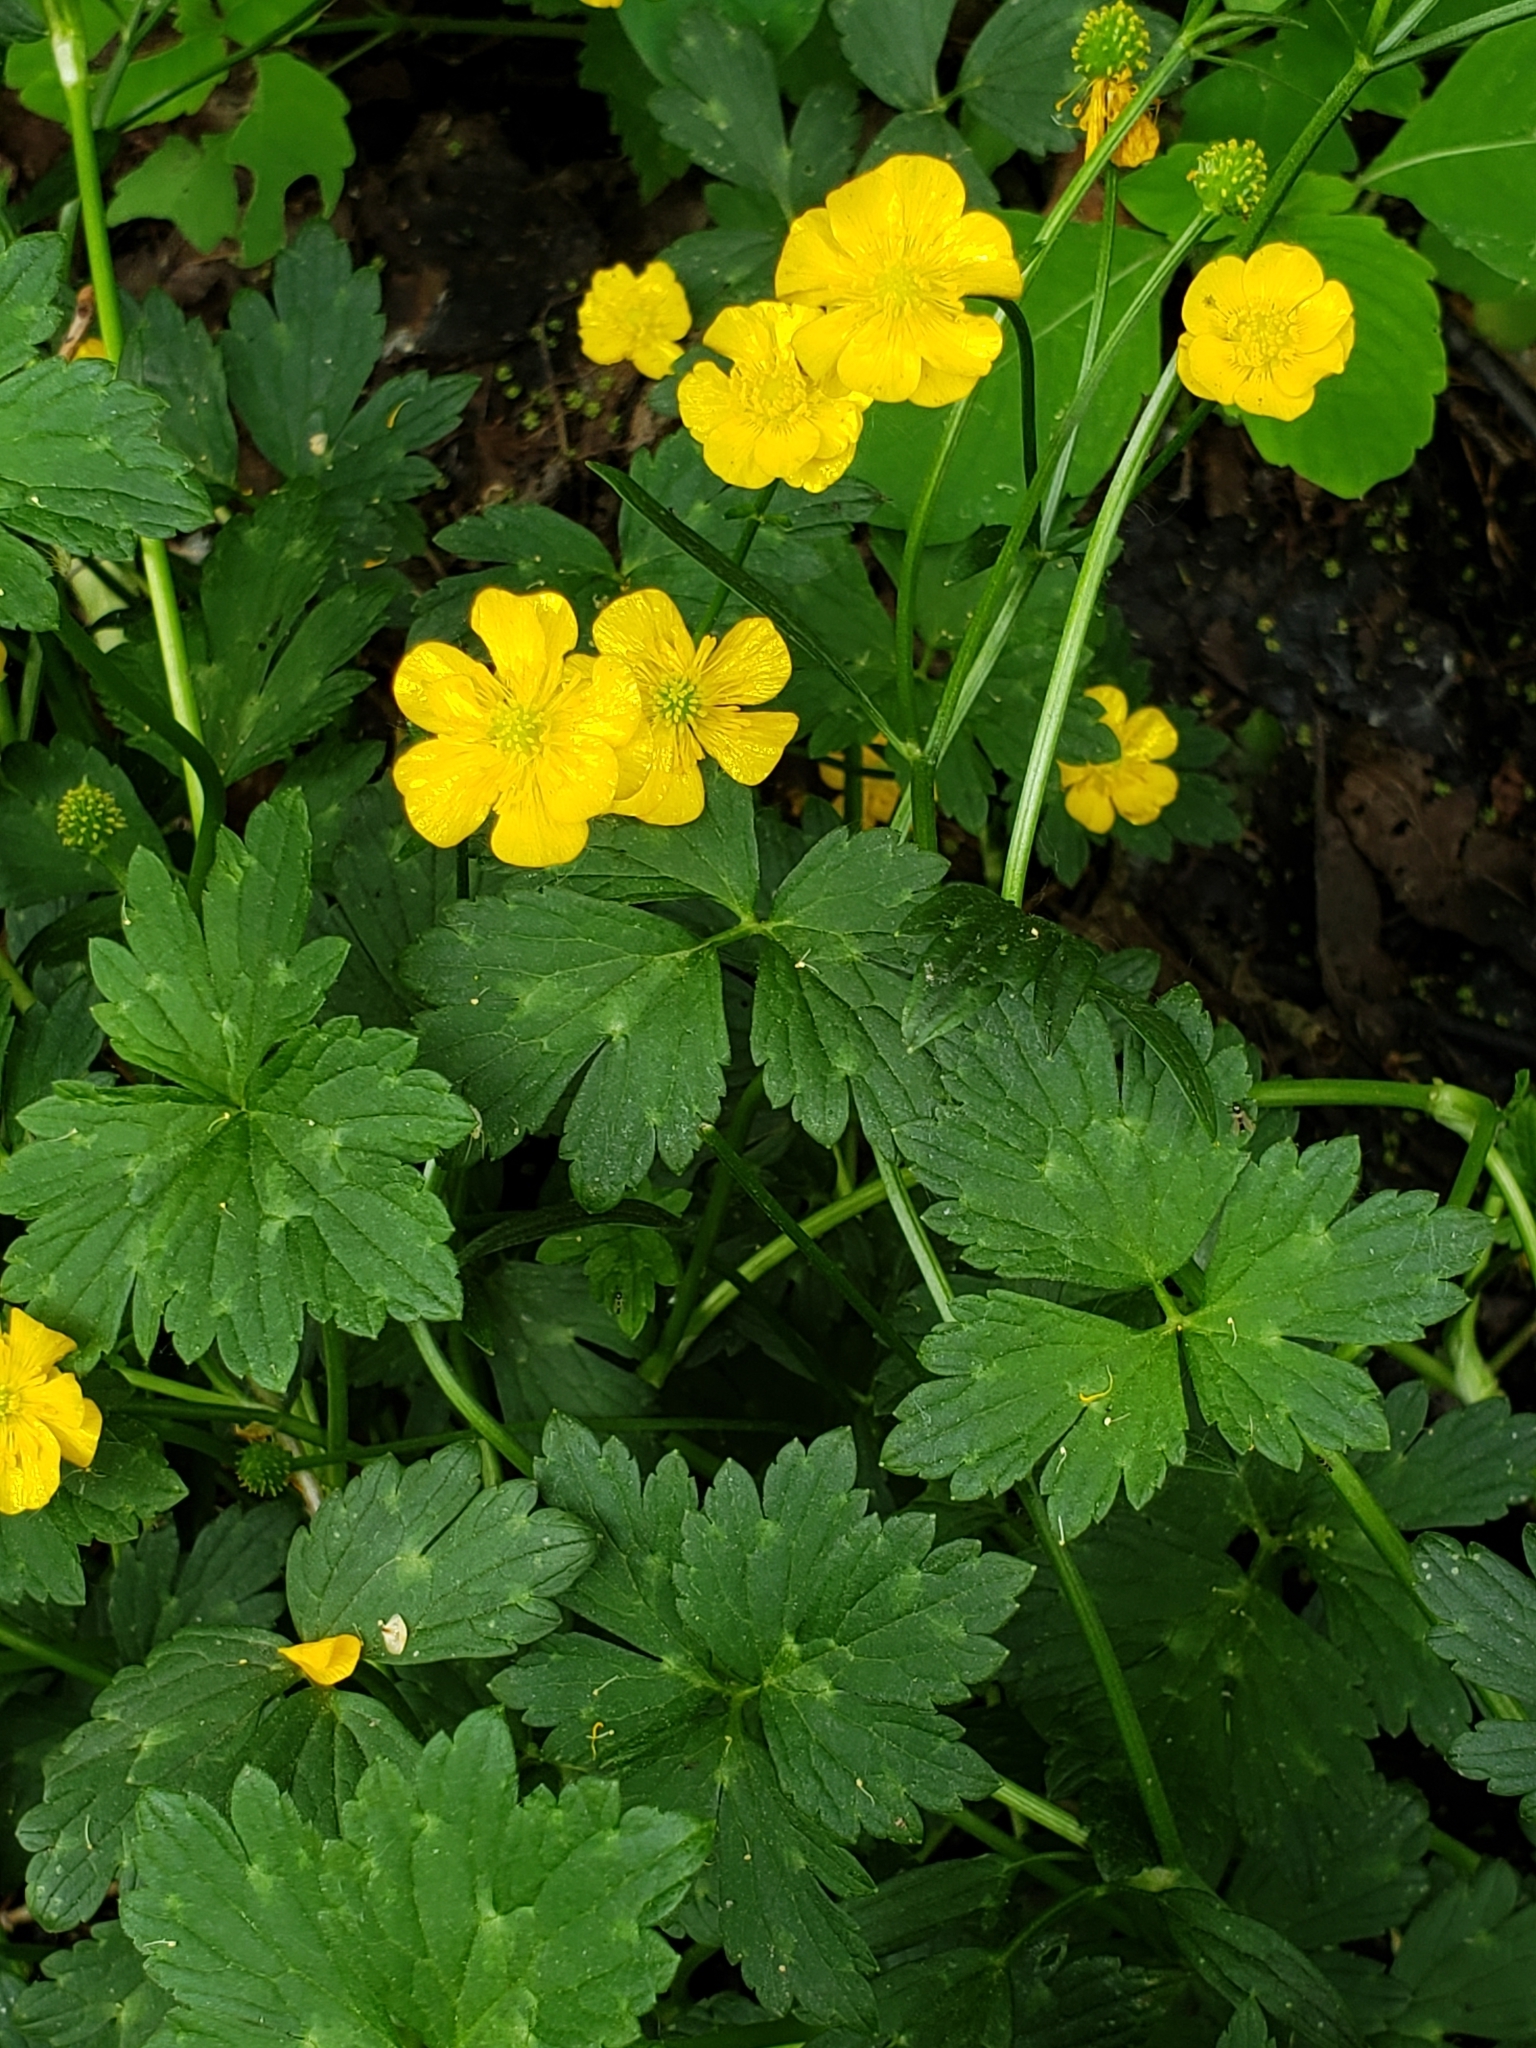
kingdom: Plantae
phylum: Tracheophyta
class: Magnoliopsida
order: Ranunculales
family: Ranunculaceae
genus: Ranunculus
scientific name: Ranunculus repens
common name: Creeping buttercup
